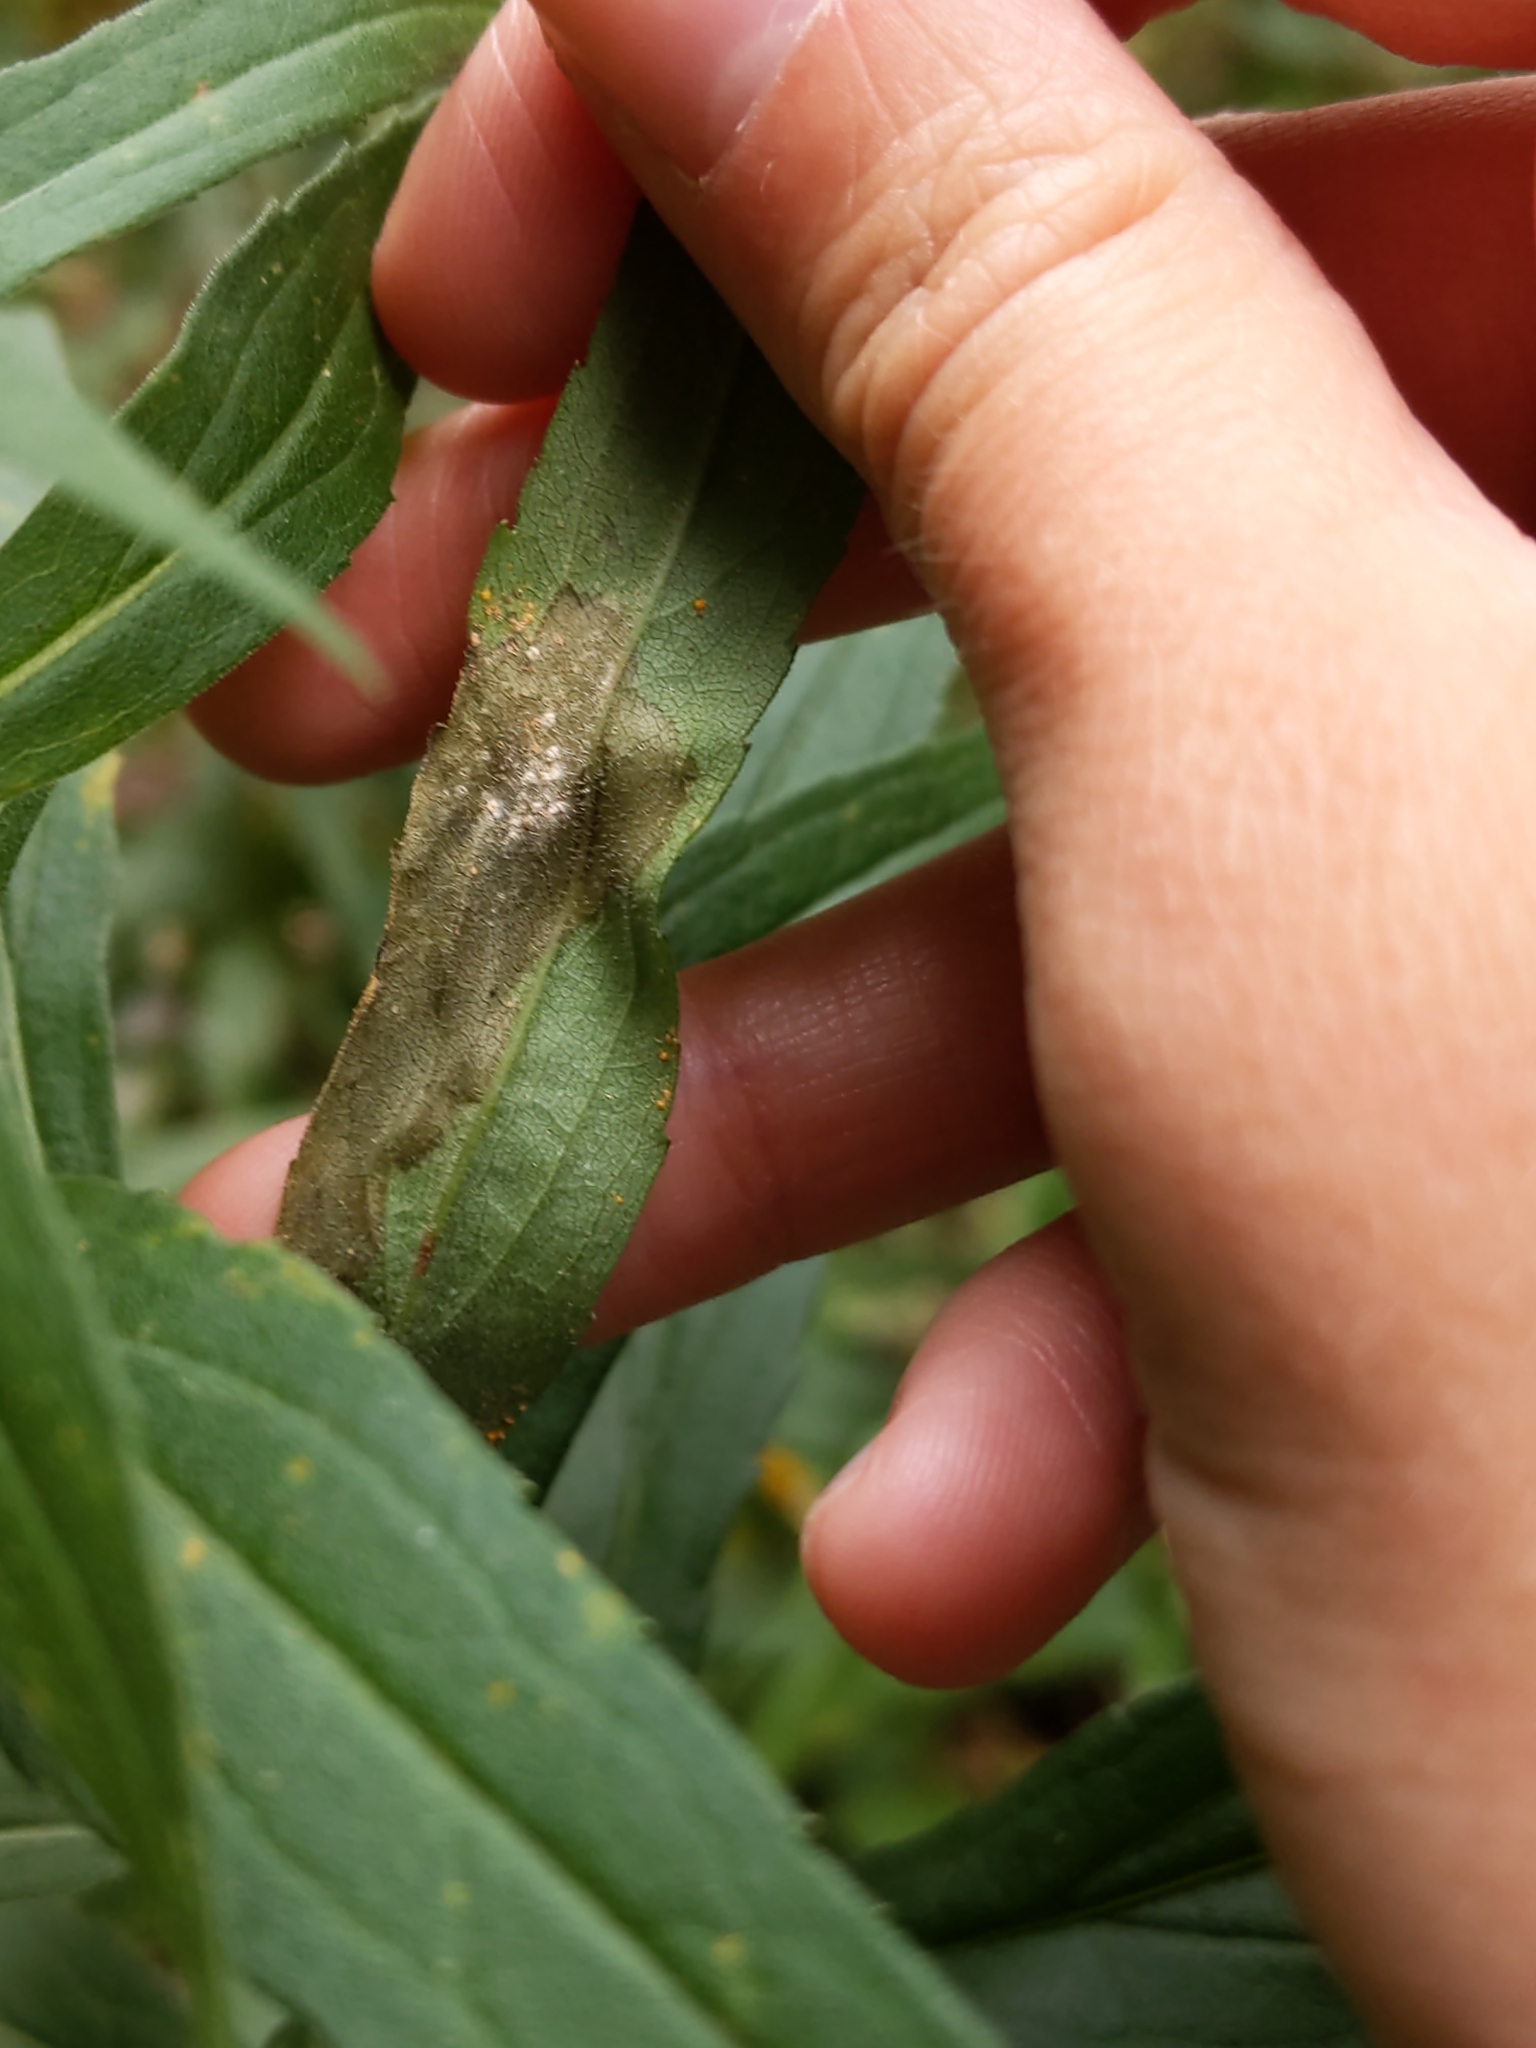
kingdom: Animalia
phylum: Arthropoda
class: Insecta
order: Diptera
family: Agromyzidae
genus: Nemorimyza
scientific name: Nemorimyza posticata
